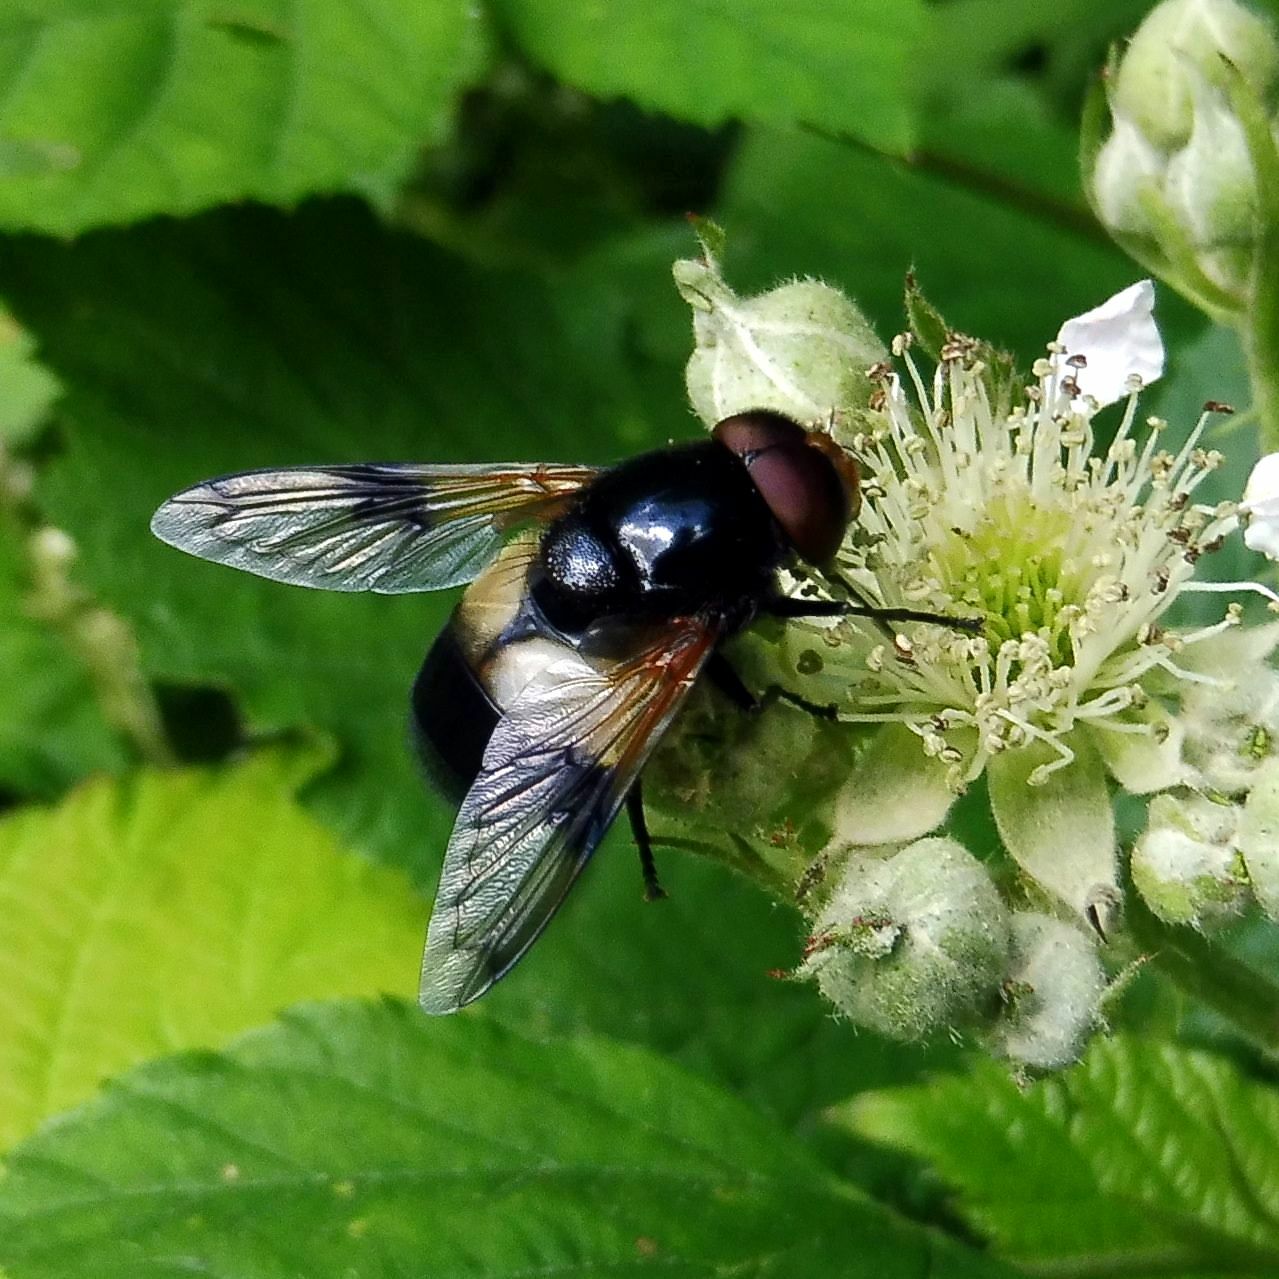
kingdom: Animalia
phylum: Arthropoda
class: Insecta
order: Diptera
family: Syrphidae
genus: Volucella
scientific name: Volucella pellucens
